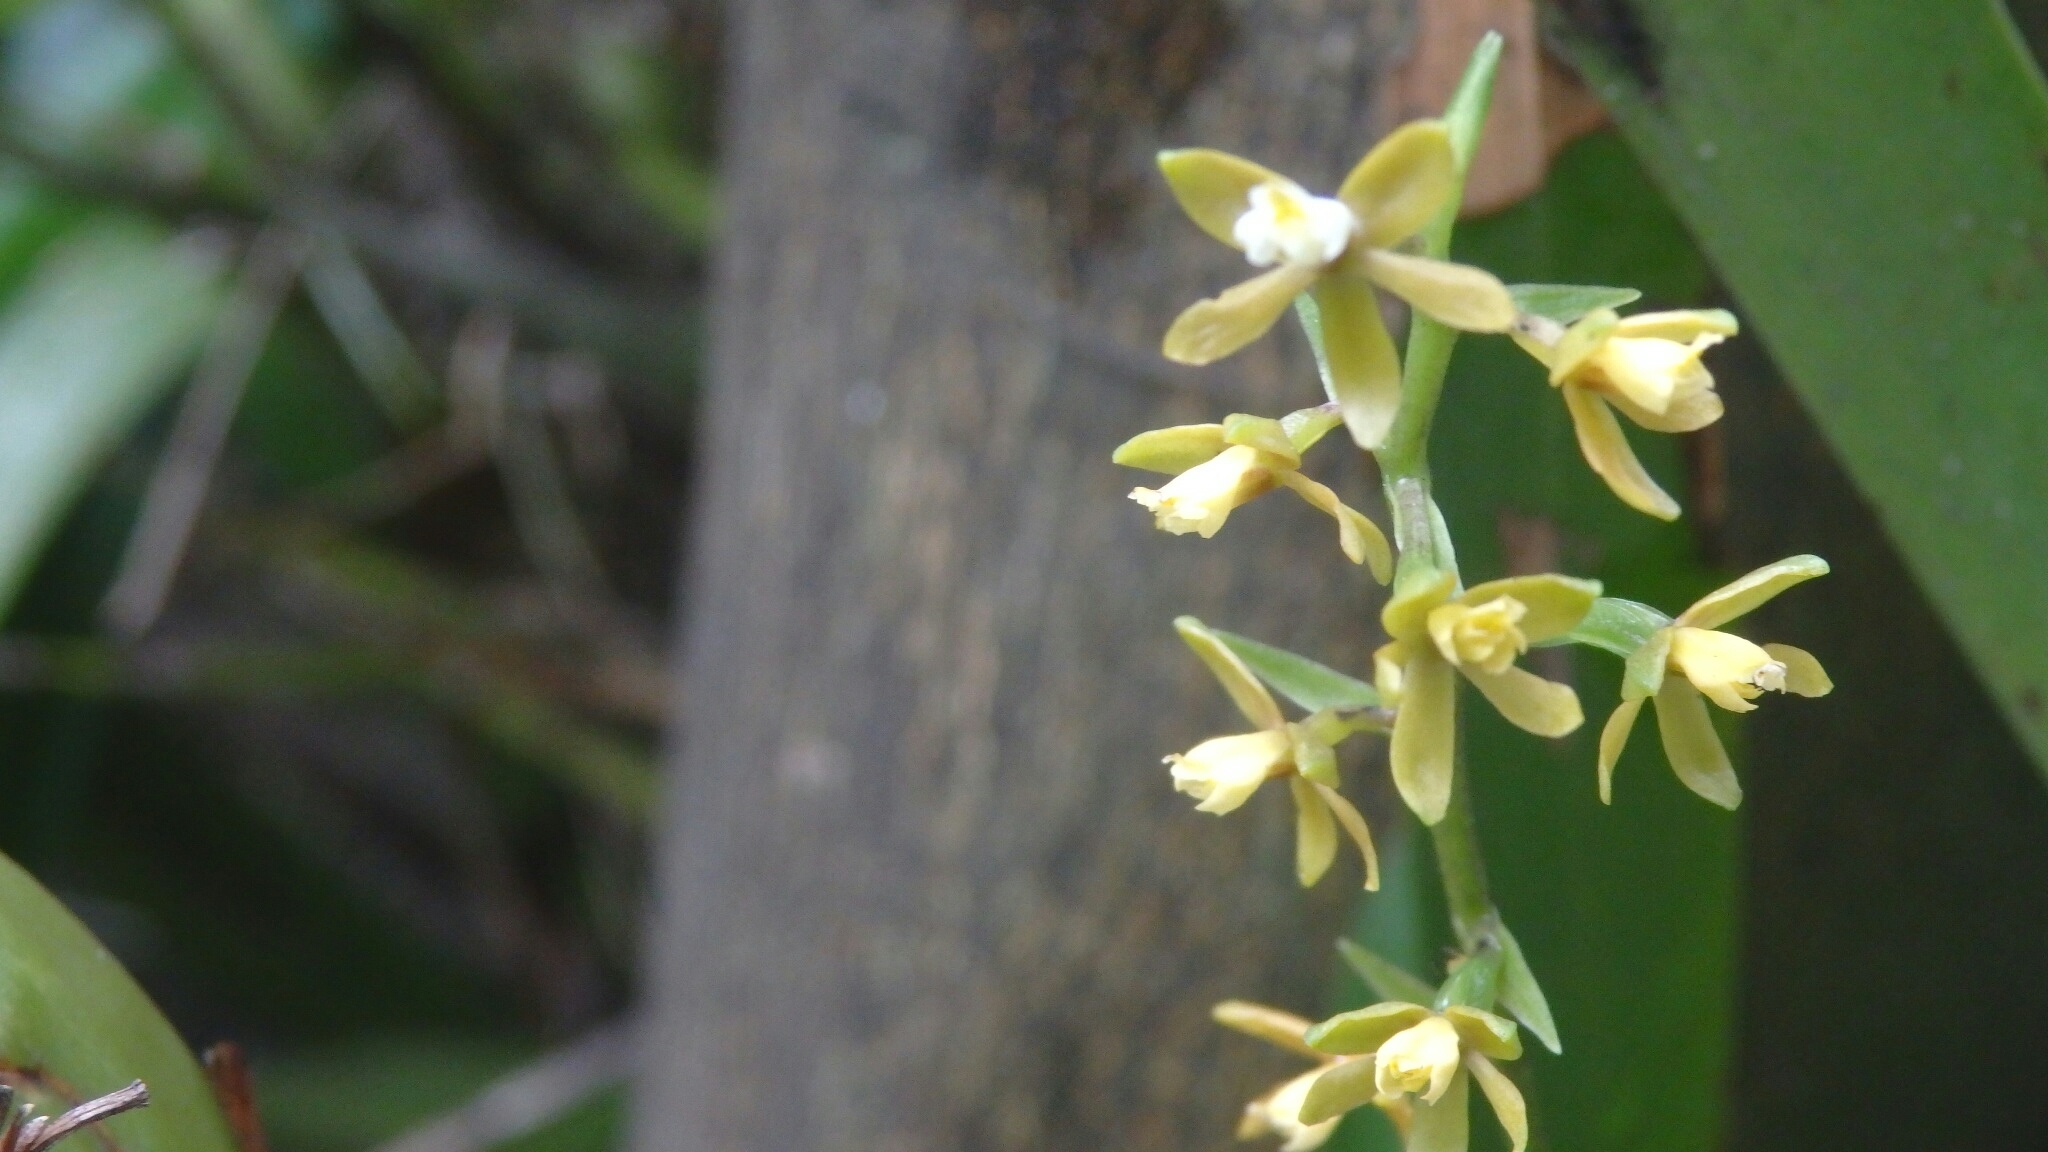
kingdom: Plantae
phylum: Tracheophyta
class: Liliopsida
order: Asparagales
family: Orchidaceae
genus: Prosthechea
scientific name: Prosthechea ochracea
